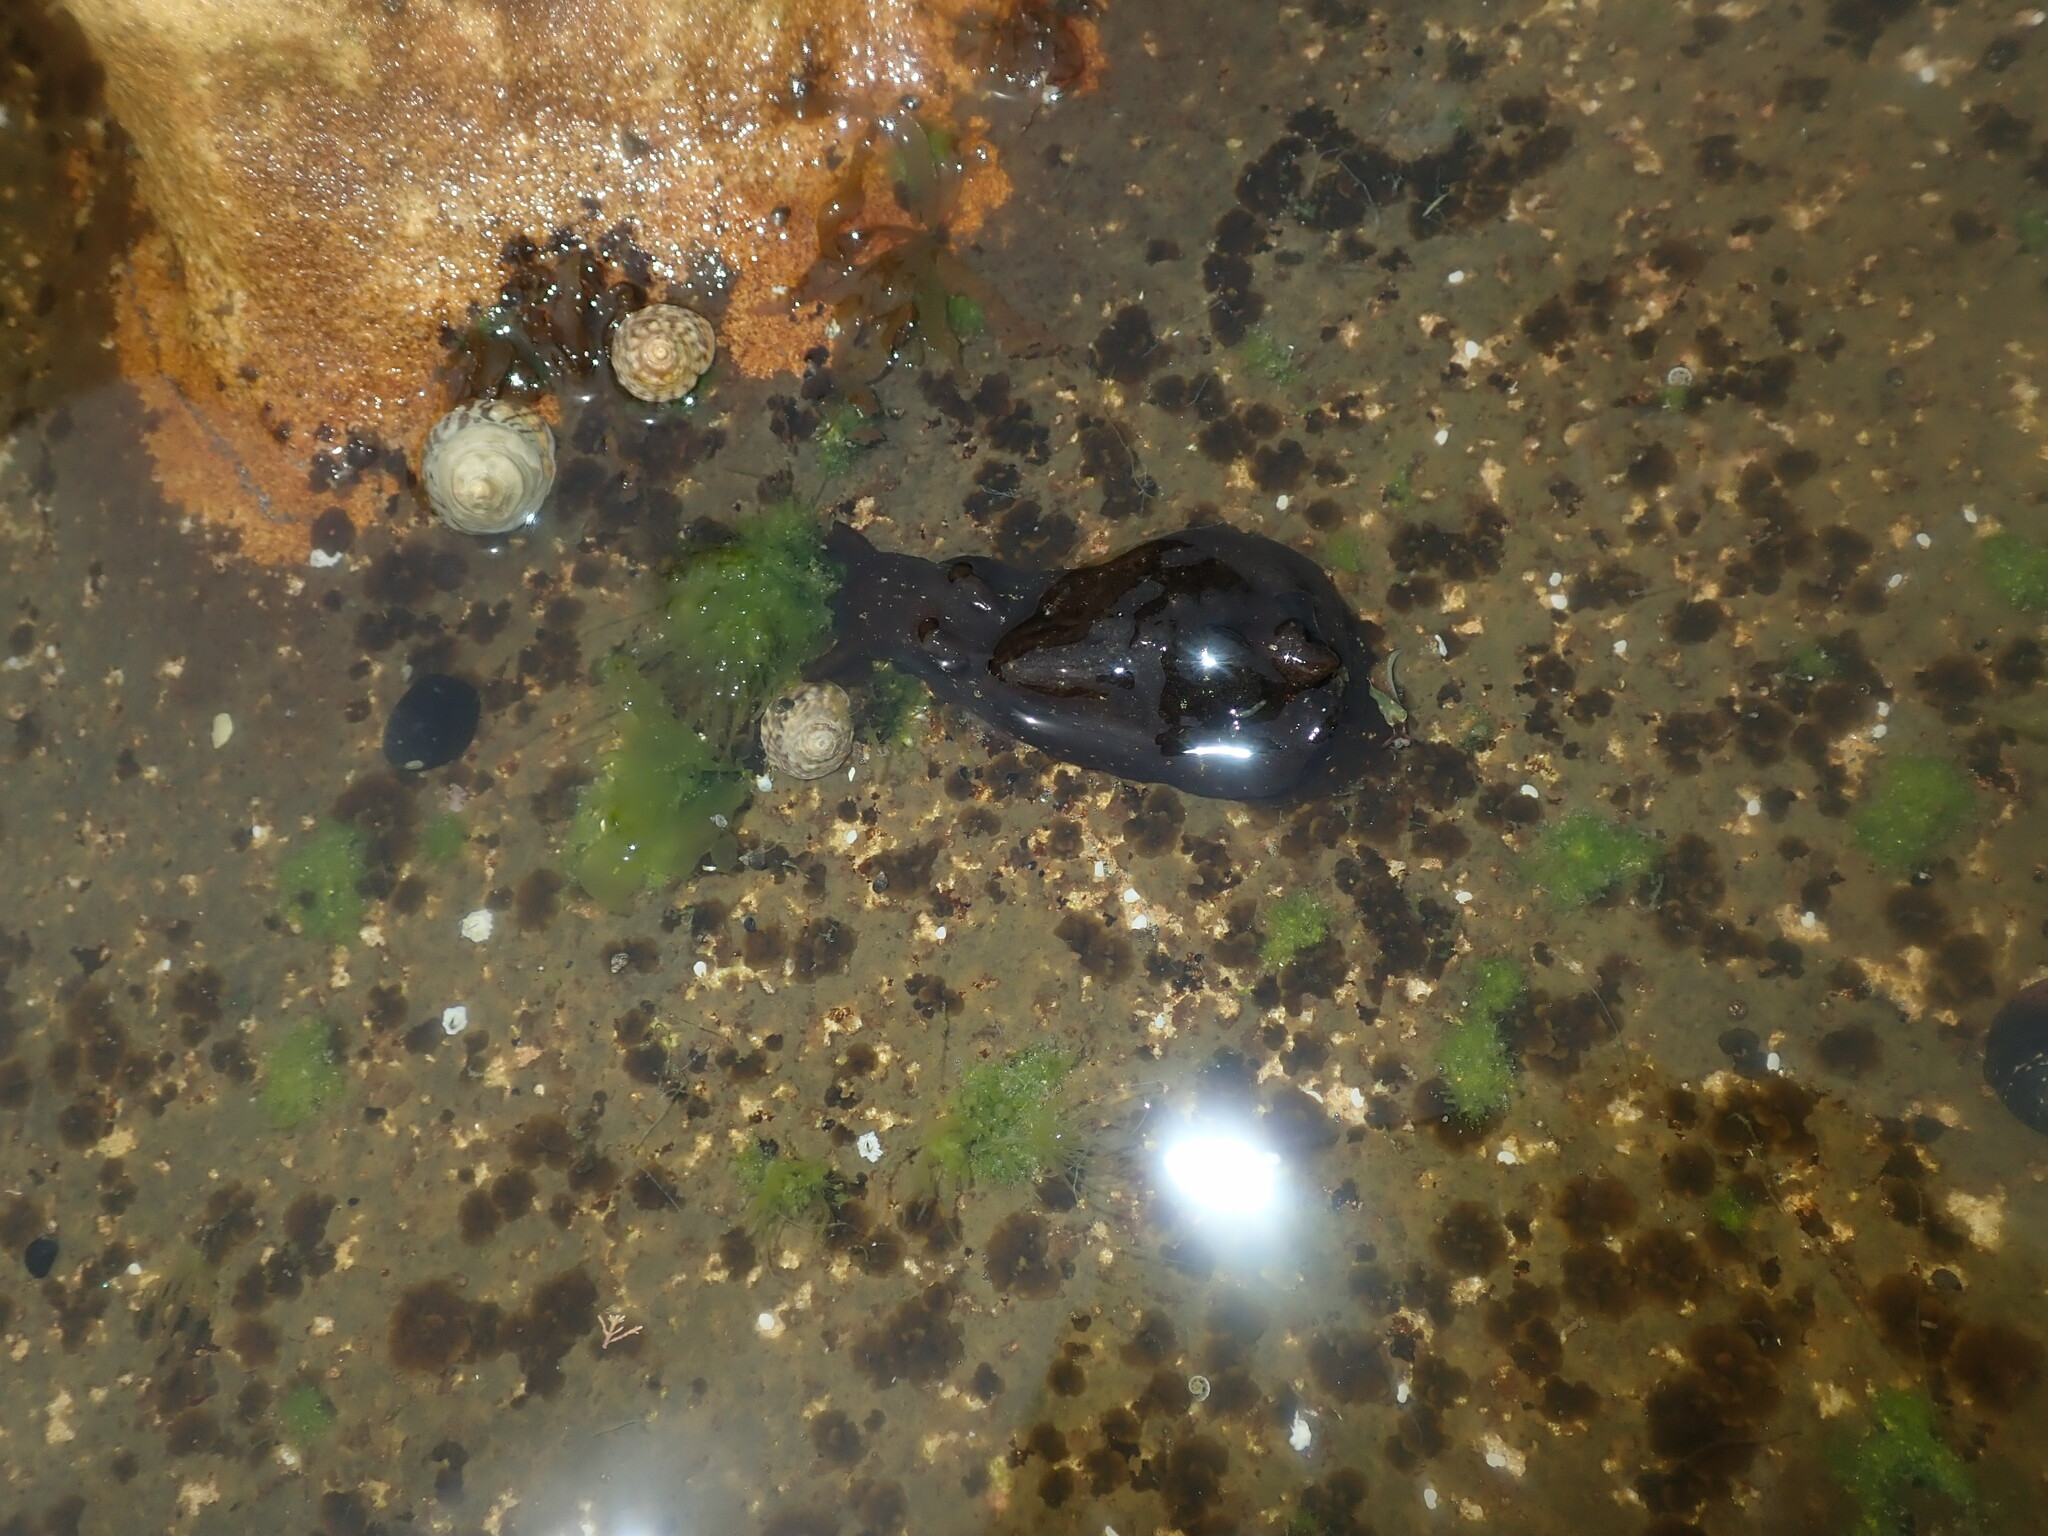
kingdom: Animalia
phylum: Mollusca
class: Gastropoda
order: Aplysiida
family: Aplysiidae
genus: Aplysia
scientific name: Aplysia juliana
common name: Walking sea hare
